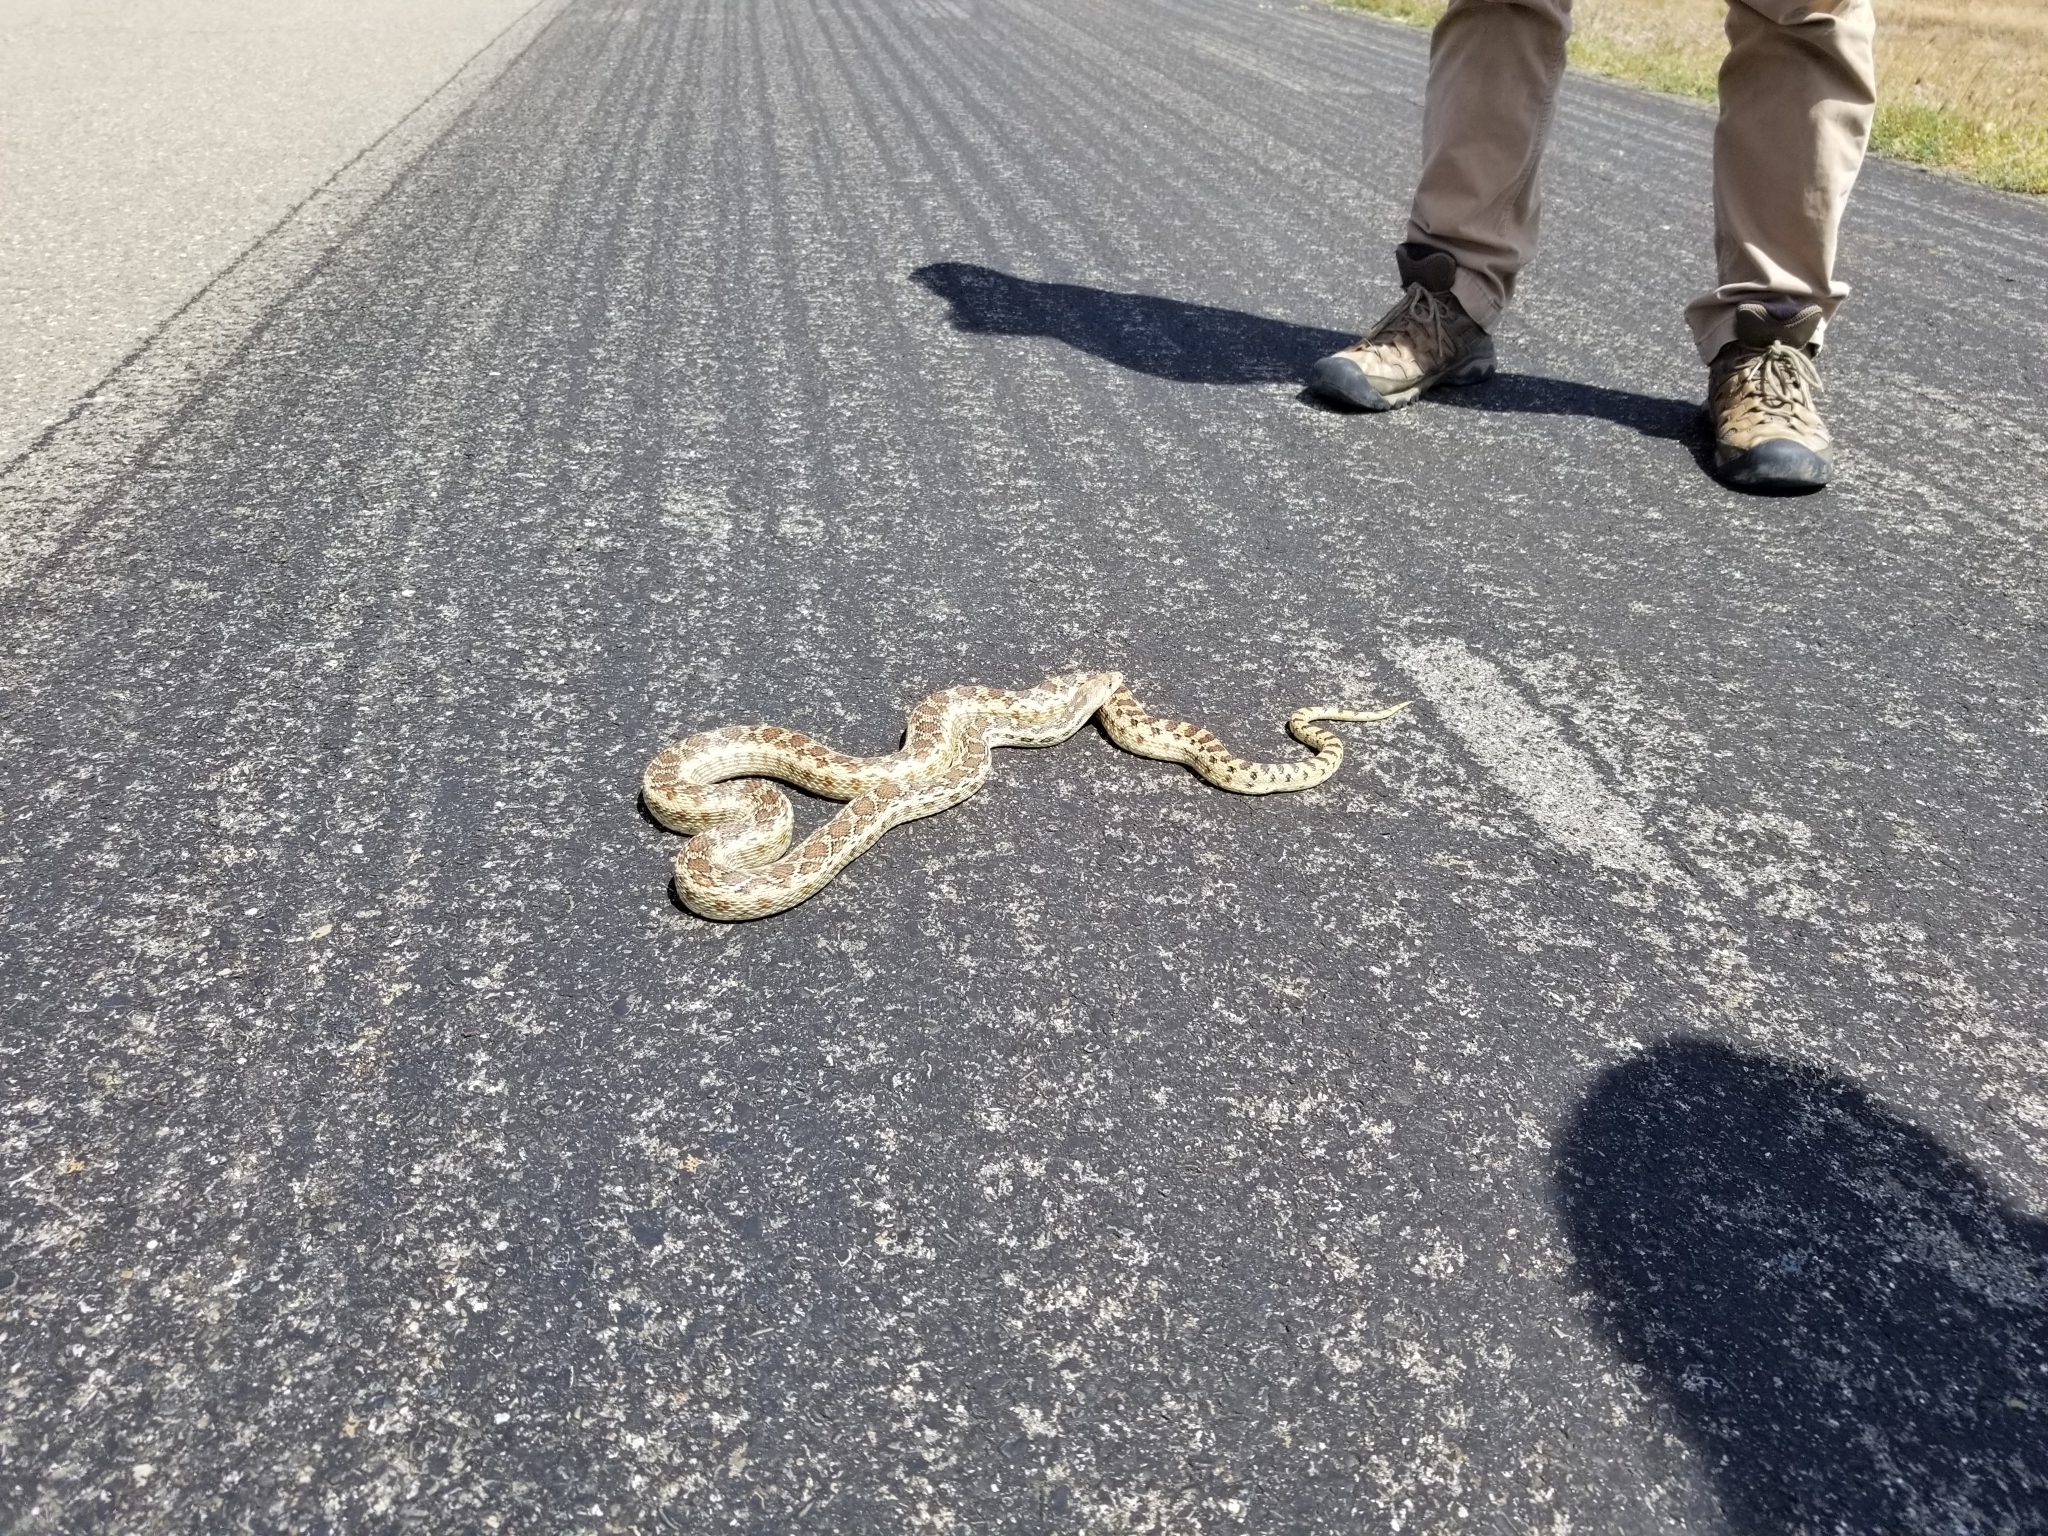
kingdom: Animalia
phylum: Chordata
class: Squamata
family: Colubridae
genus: Pituophis
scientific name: Pituophis catenifer
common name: Gopher snake
